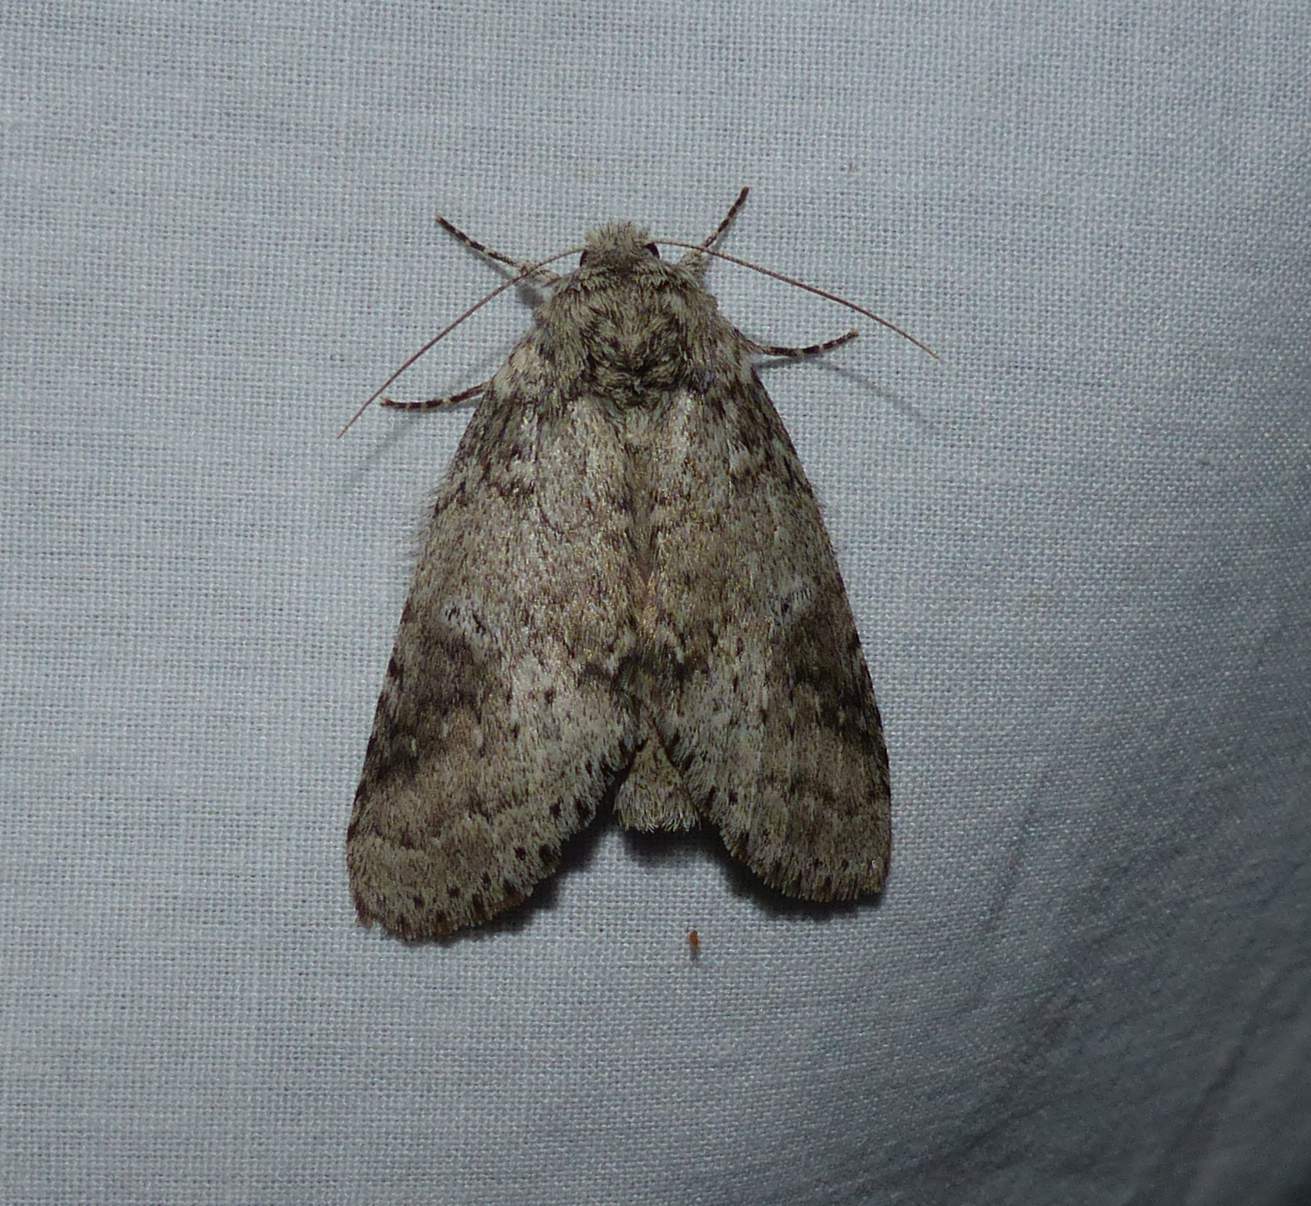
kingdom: Animalia
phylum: Arthropoda
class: Insecta
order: Lepidoptera
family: Notodontidae
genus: Lochmaeus
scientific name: Lochmaeus manteo
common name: Variable oakleaf caterpillar moth
